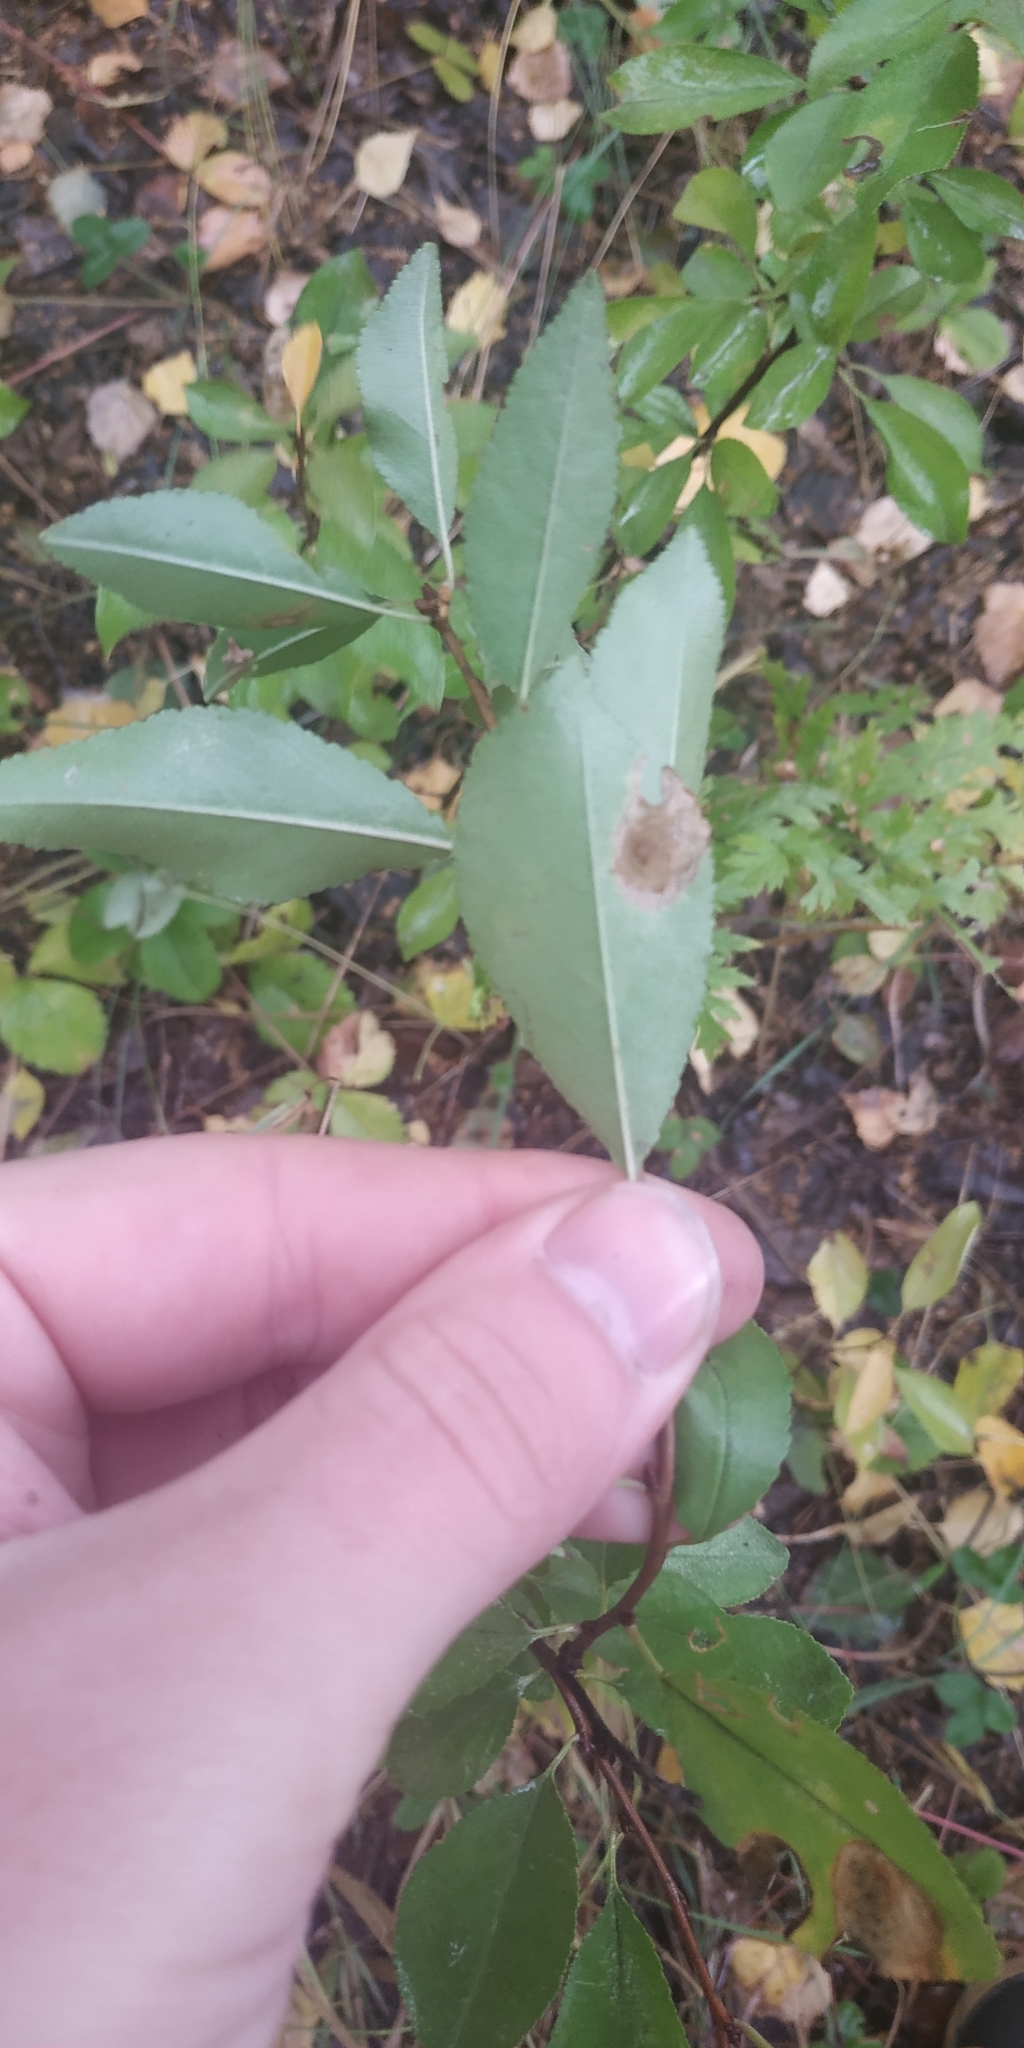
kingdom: Plantae
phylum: Tracheophyta
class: Magnoliopsida
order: Rosales
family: Rosaceae
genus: Prunus
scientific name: Prunus fruticosa
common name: European dwarf cherry
